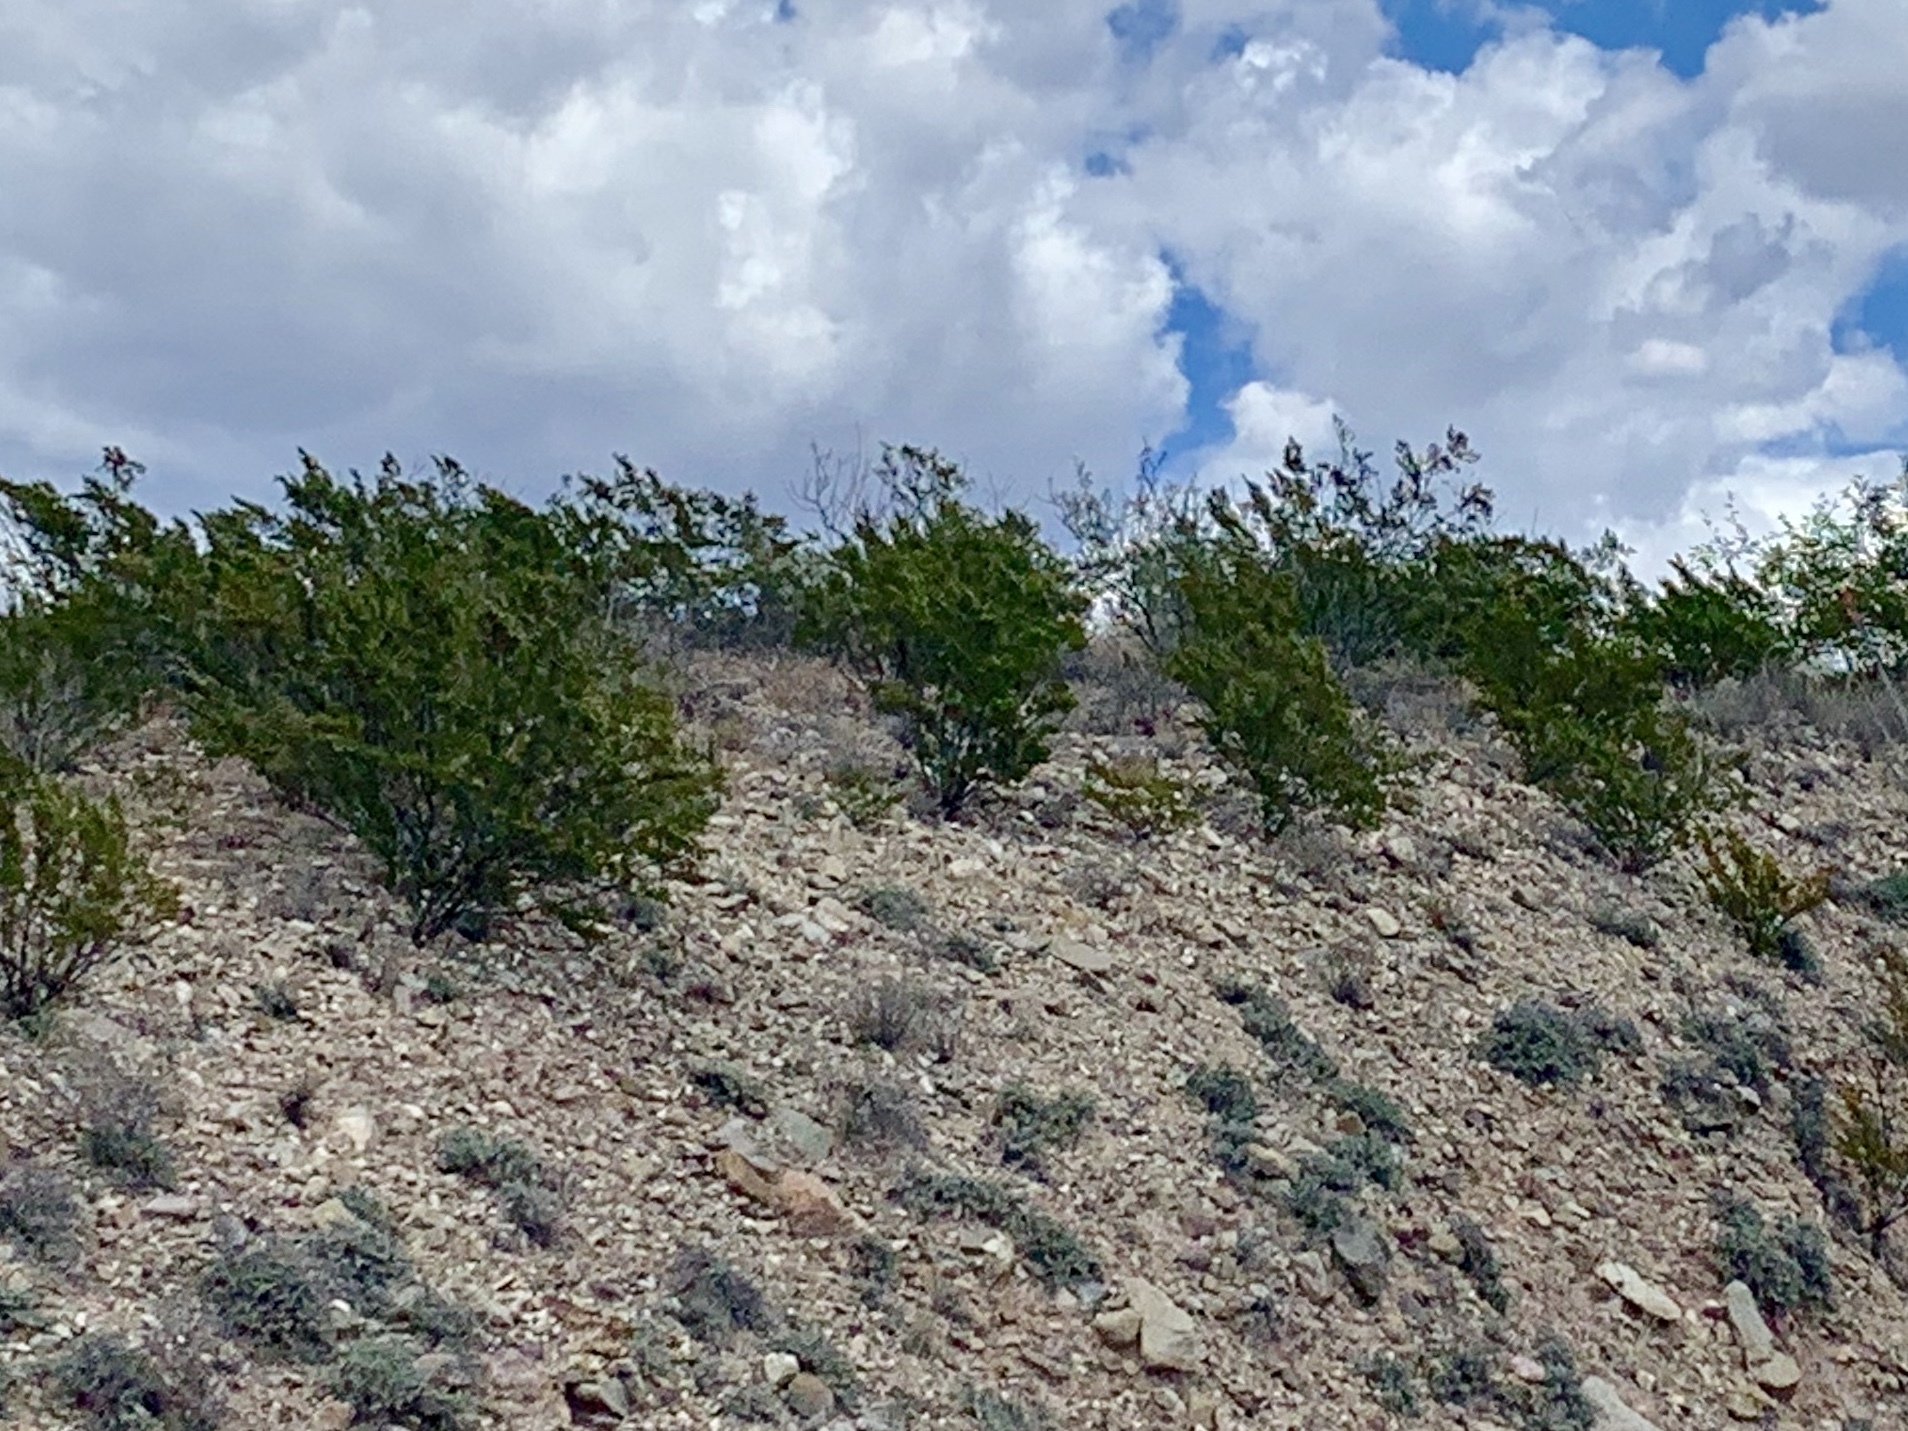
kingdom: Plantae
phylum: Tracheophyta
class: Magnoliopsida
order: Zygophyllales
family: Zygophyllaceae
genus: Larrea
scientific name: Larrea tridentata
